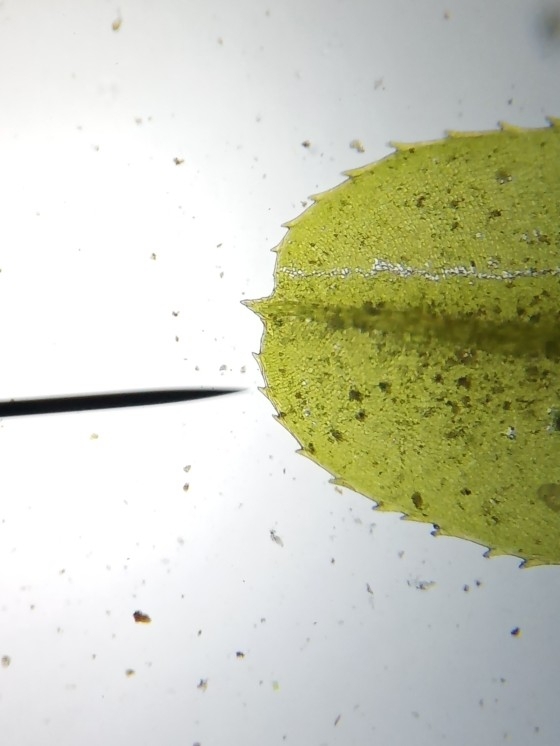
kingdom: Plantae
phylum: Bryophyta
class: Bryopsida
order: Bryales
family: Mniaceae
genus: Plagiomnium
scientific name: Plagiomnium undulatum
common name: Hart's-tongue thyme-moss
